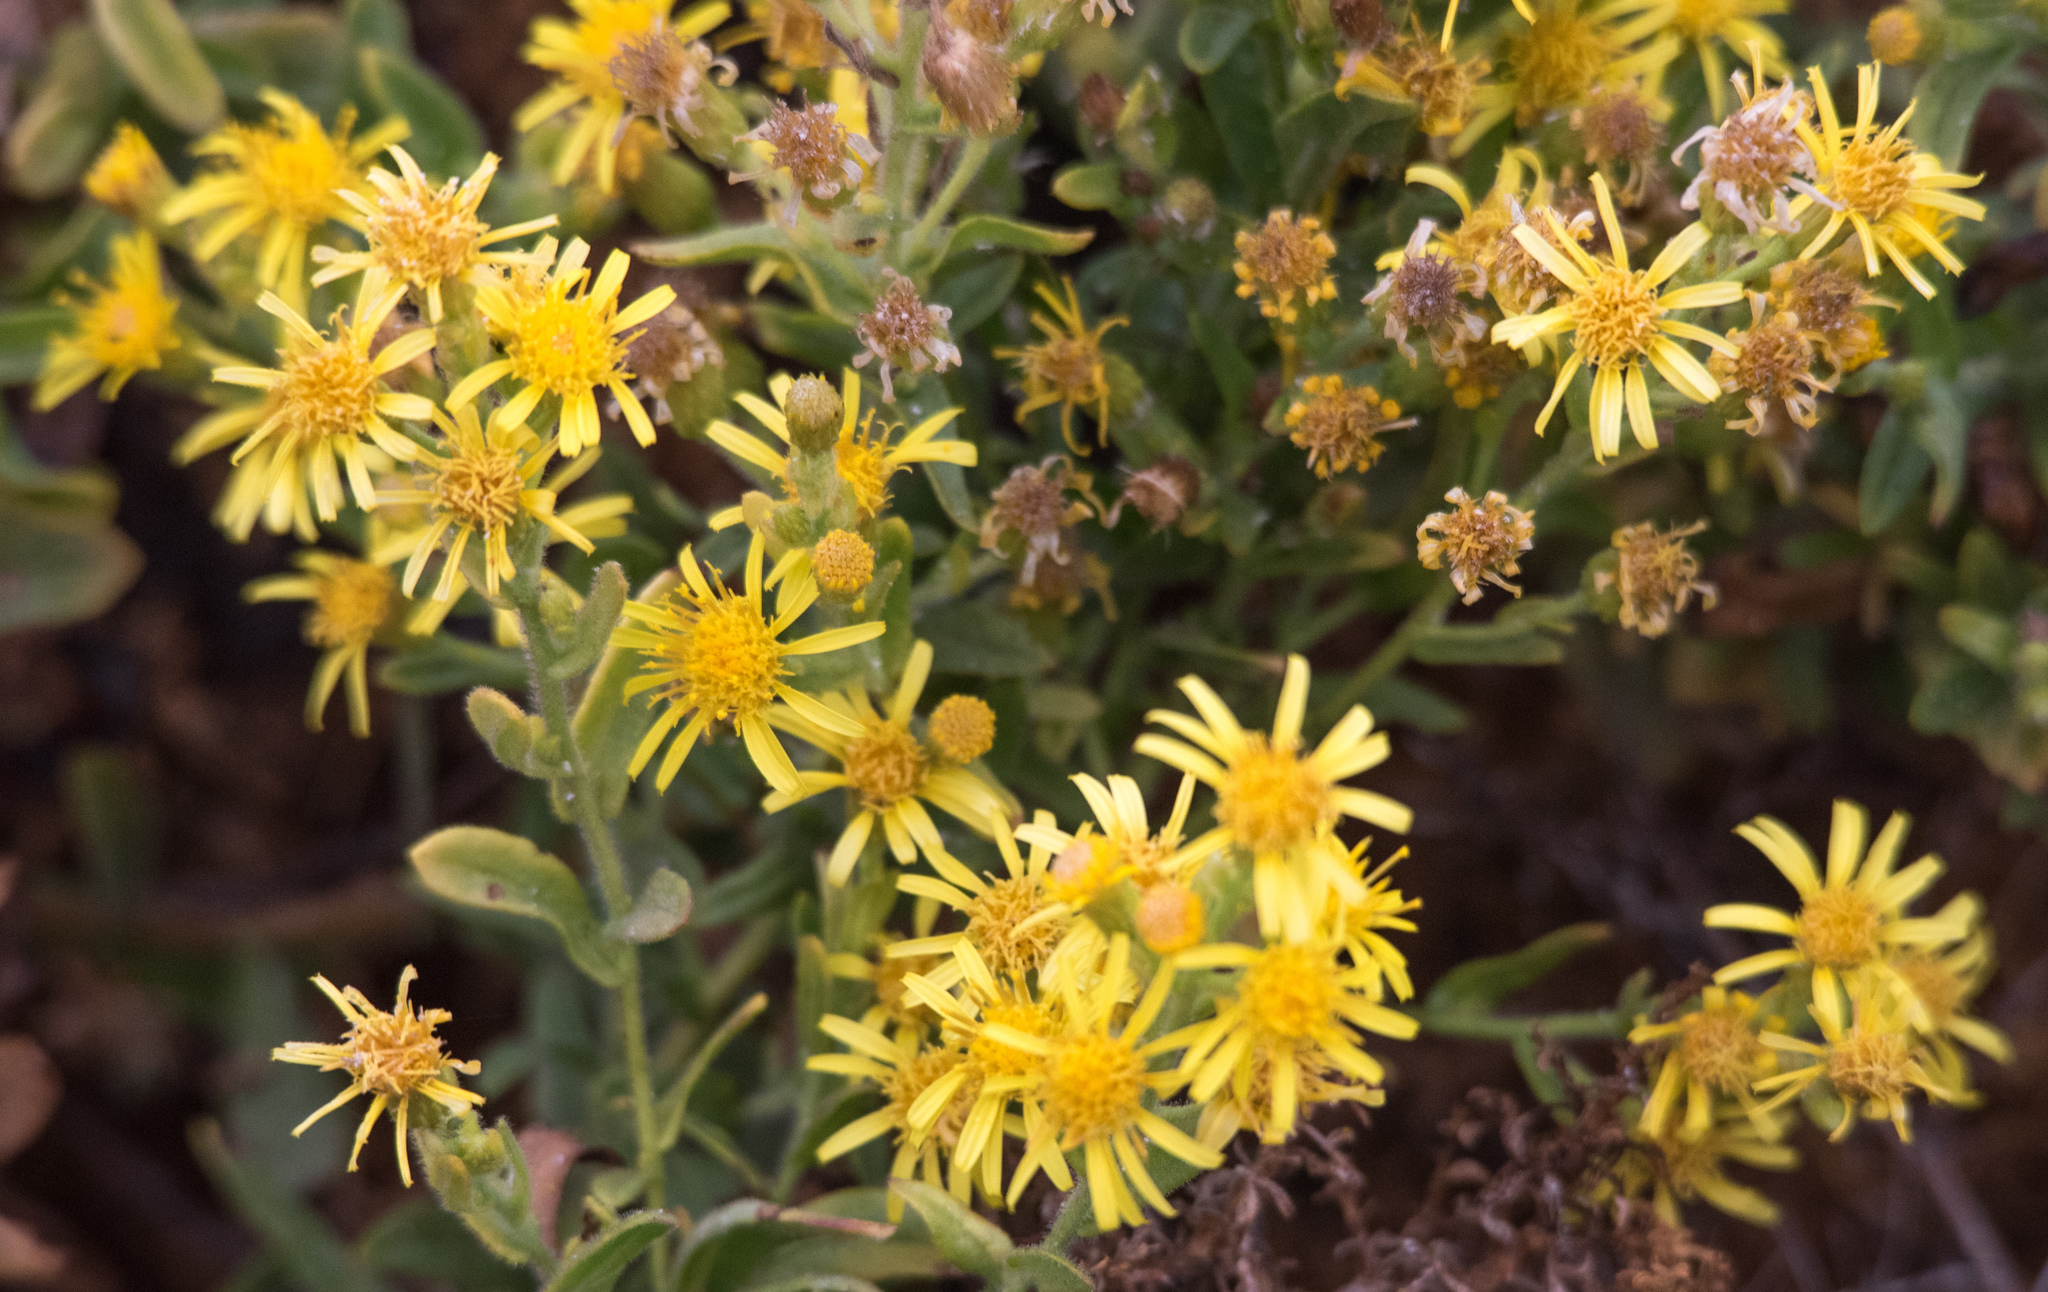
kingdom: Plantae
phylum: Tracheophyta
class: Magnoliopsida
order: Asterales
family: Asteraceae
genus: Dittrichia
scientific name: Dittrichia viscosa
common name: Woody fleabane
